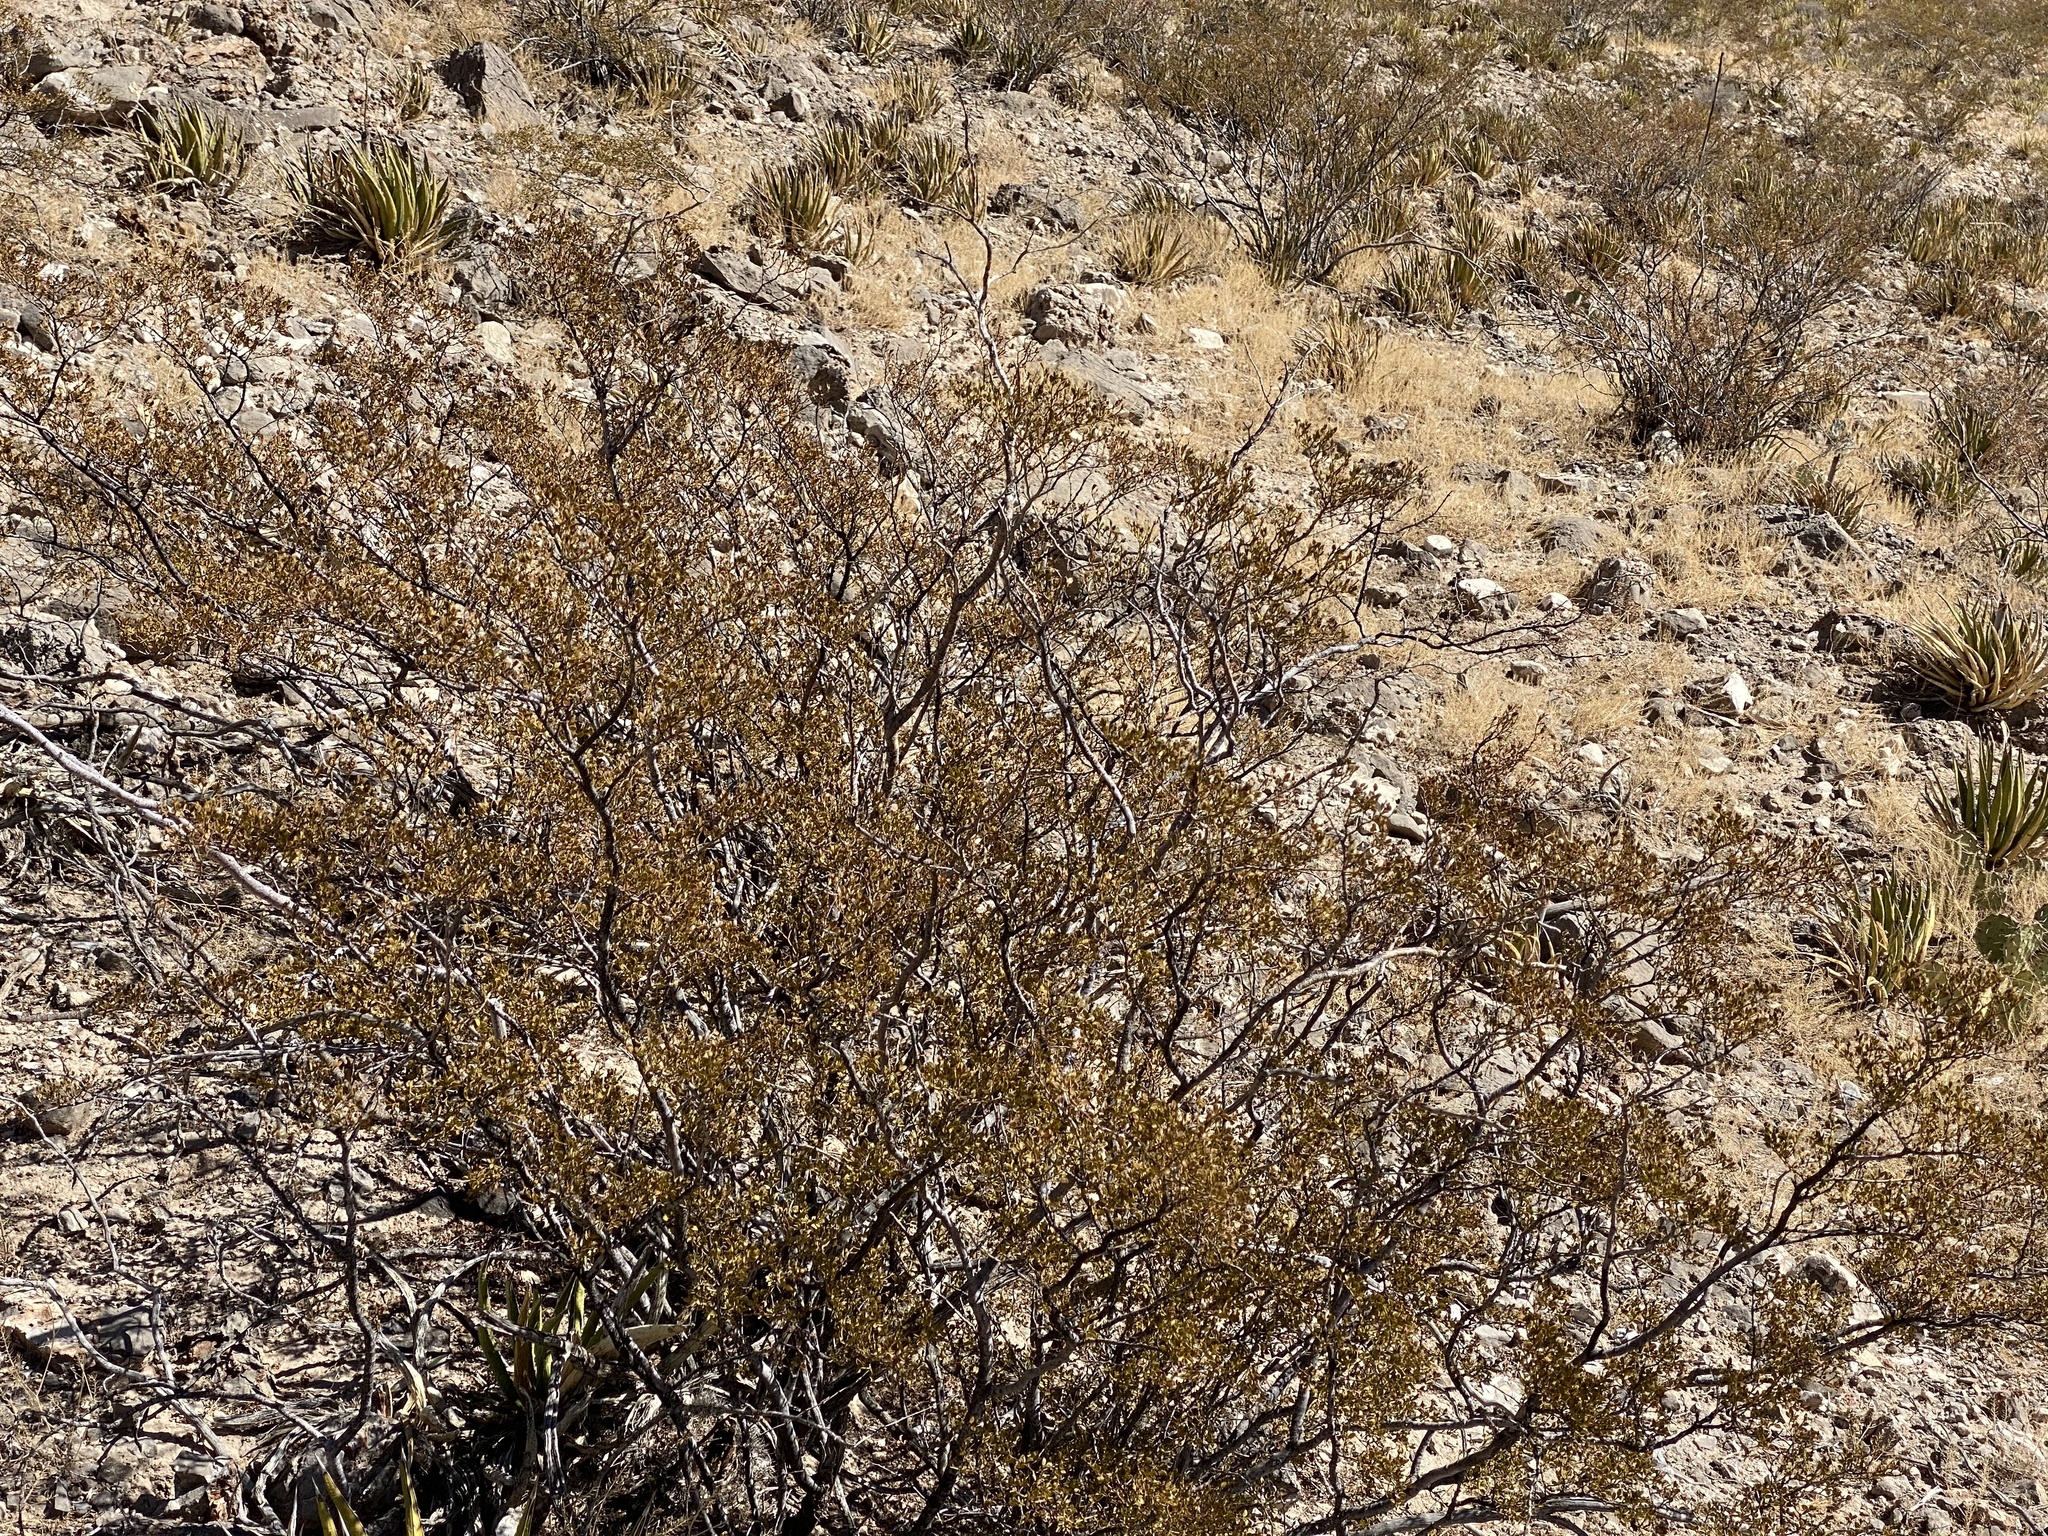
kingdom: Plantae
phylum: Tracheophyta
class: Magnoliopsida
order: Zygophyllales
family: Zygophyllaceae
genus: Larrea
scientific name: Larrea tridentata
